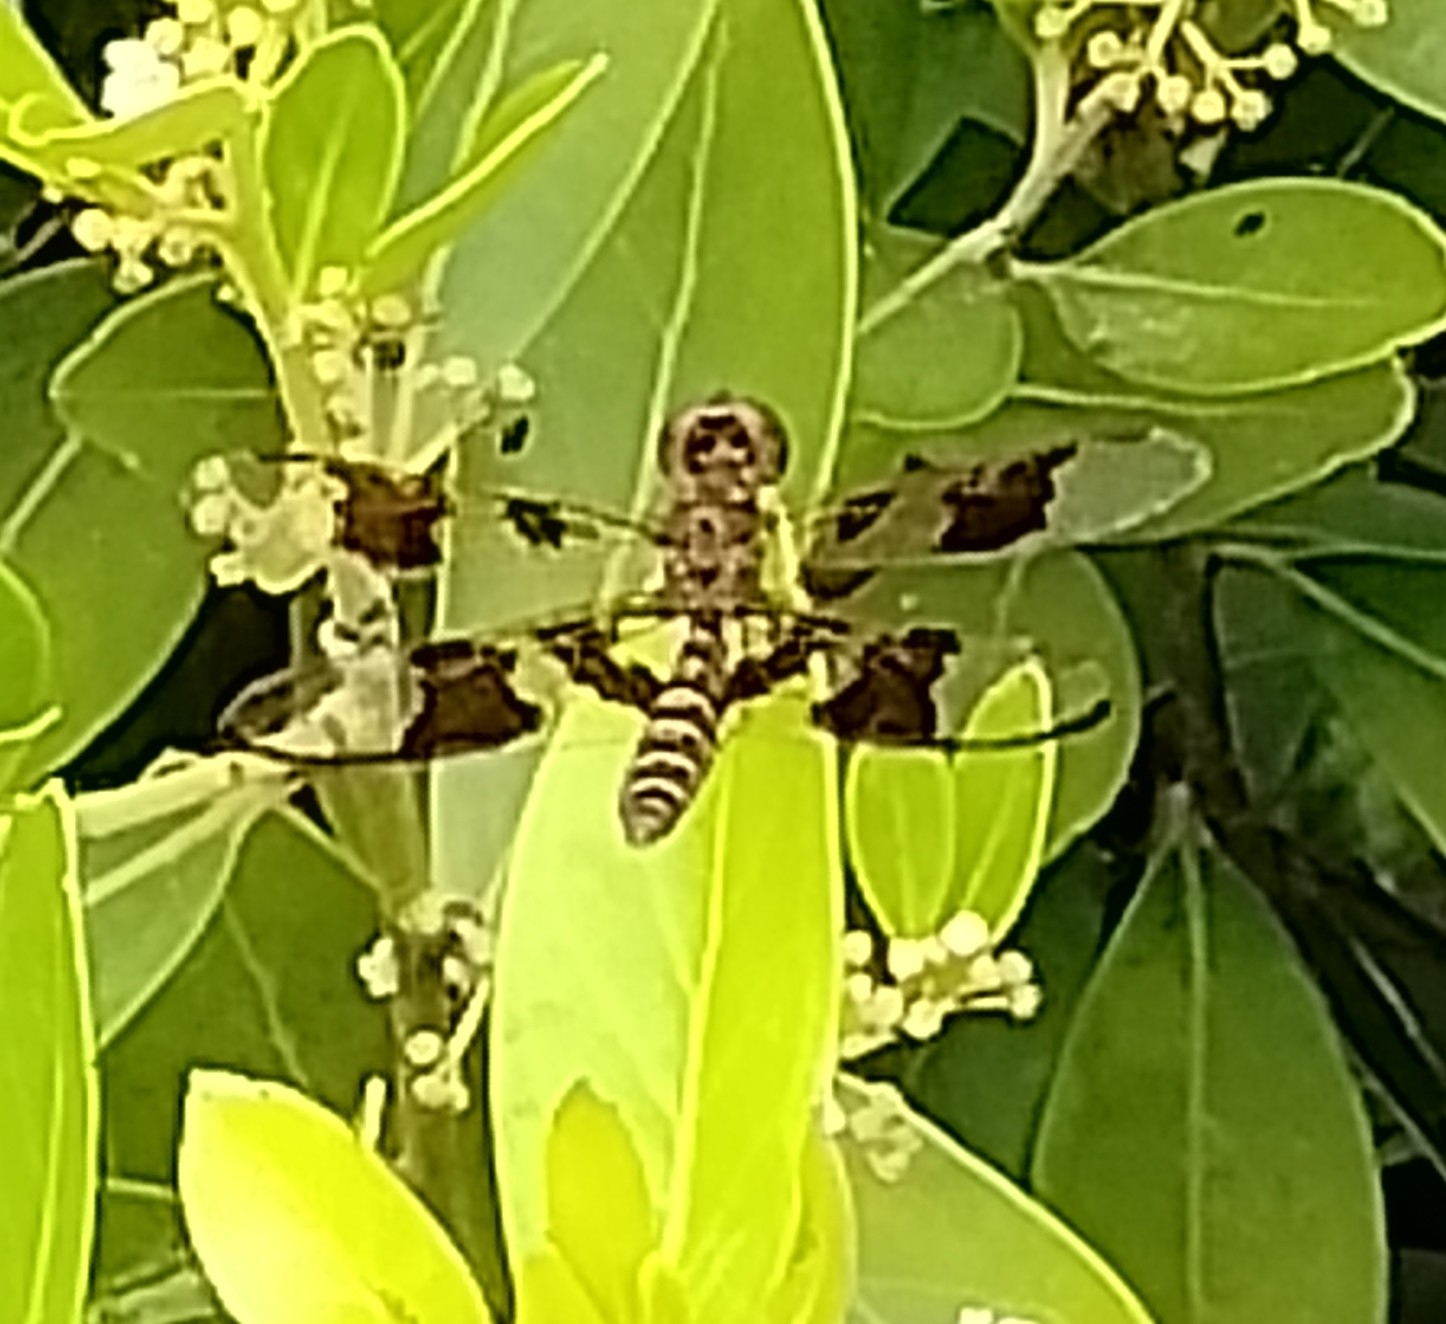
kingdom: Animalia
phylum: Arthropoda
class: Insecta
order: Odonata
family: Libellulidae
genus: Perithemis
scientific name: Perithemis tenera
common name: Eastern amberwing
